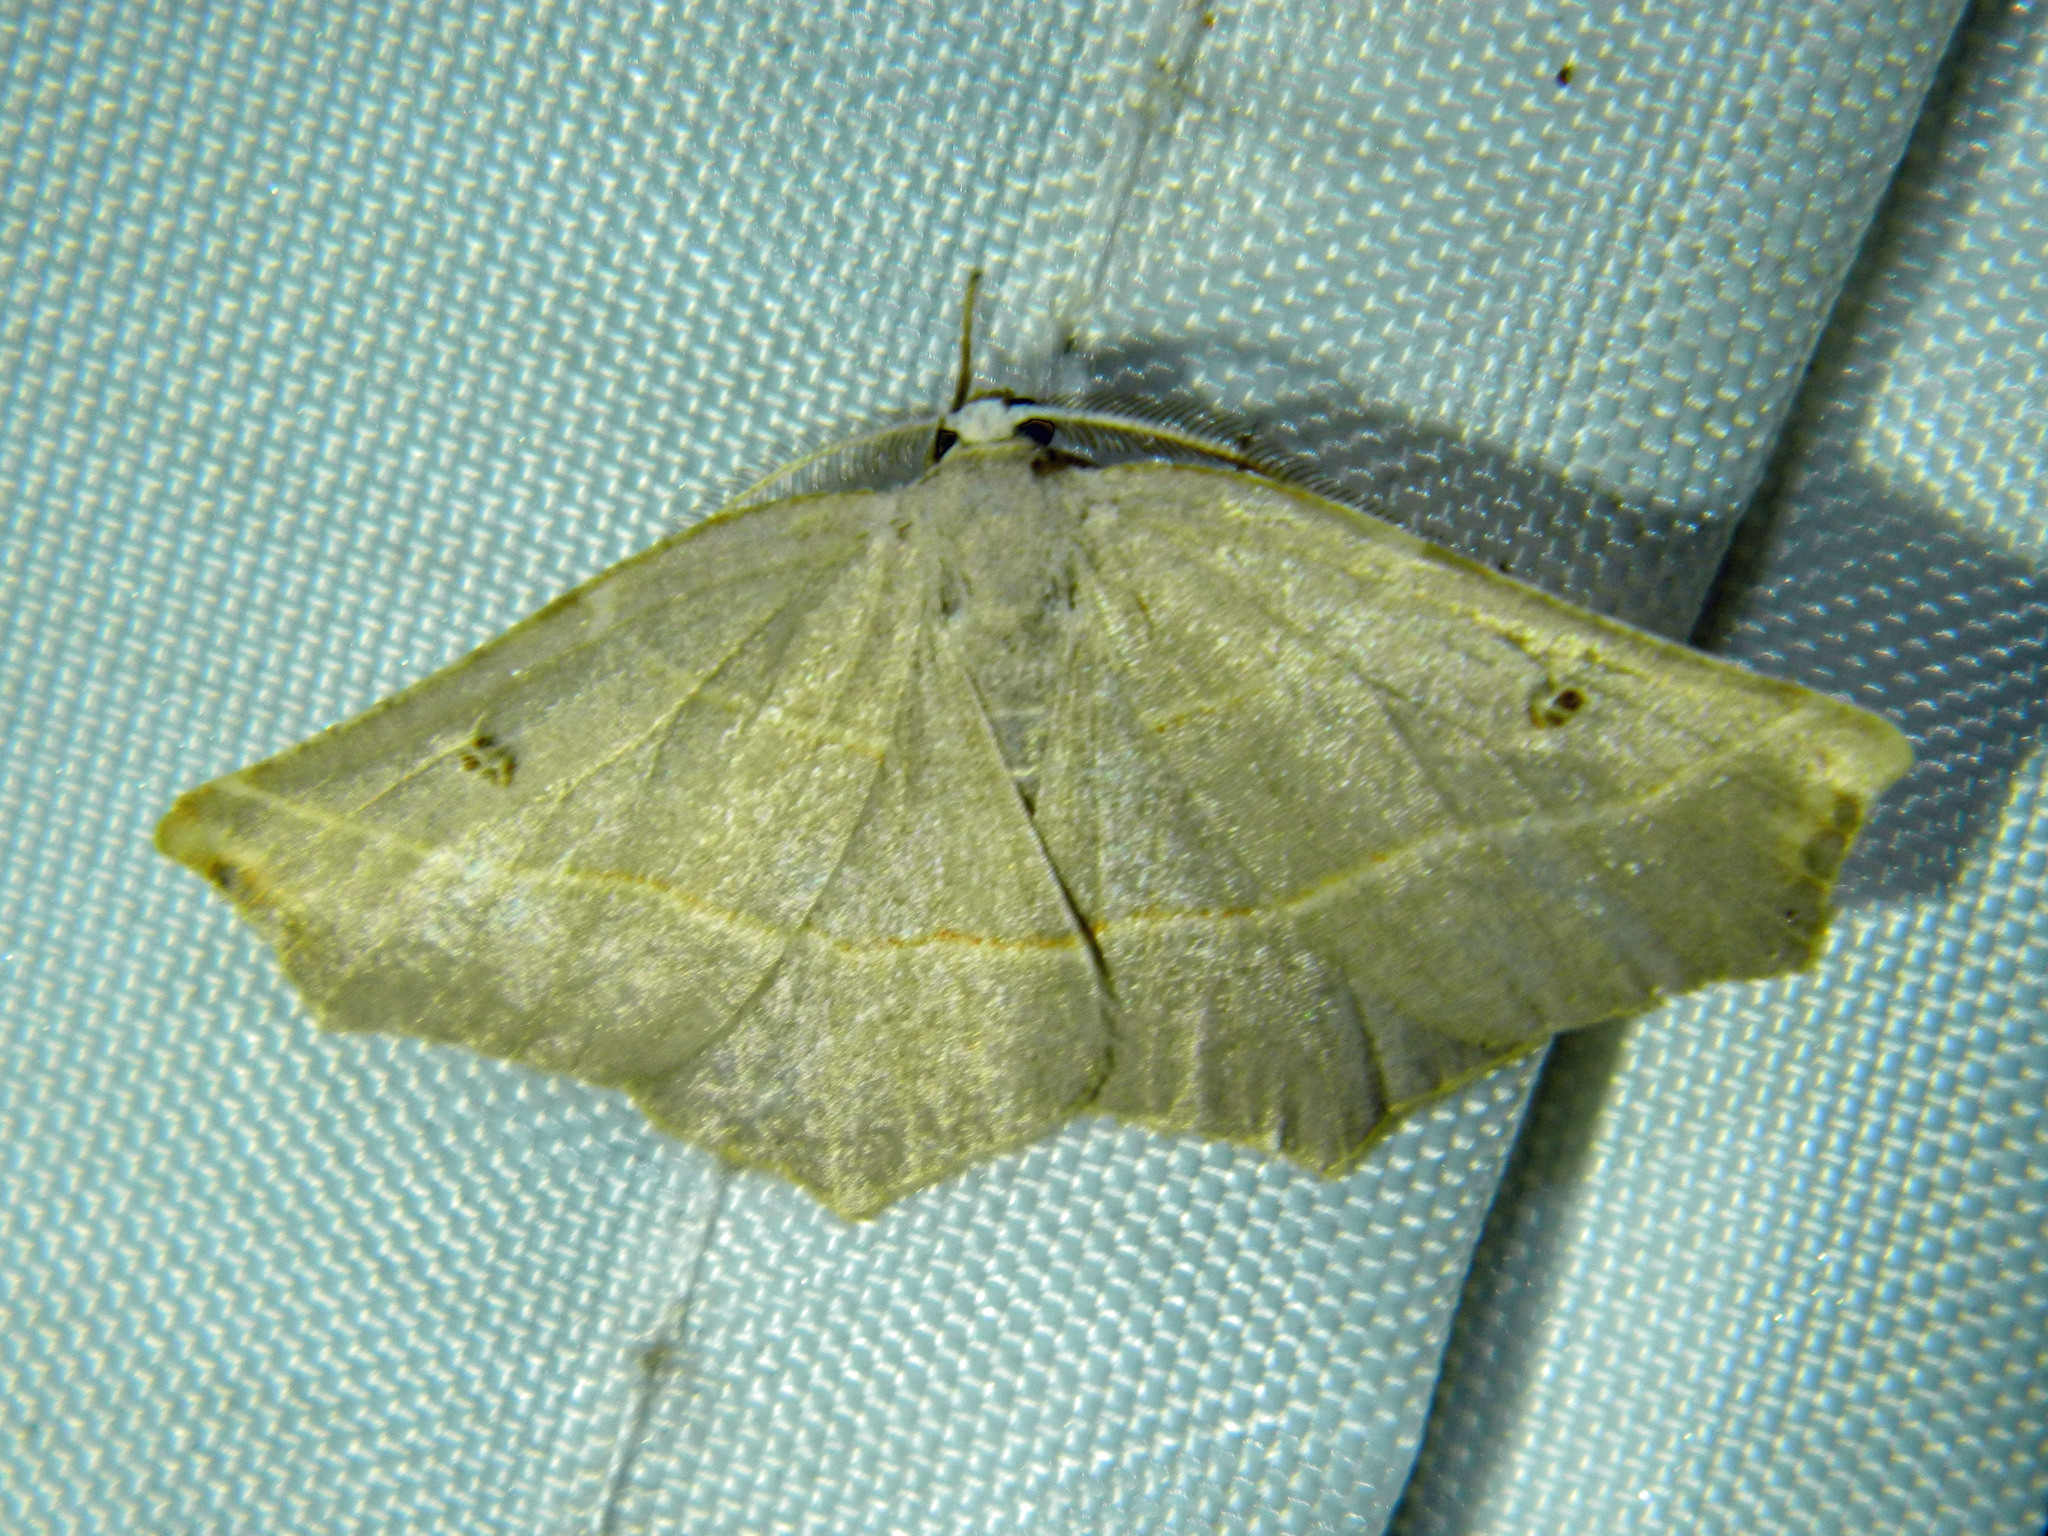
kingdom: Animalia
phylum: Arthropoda
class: Insecta
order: Lepidoptera
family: Geometridae
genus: Metanema
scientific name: Metanema inatomaria
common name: Pale metanema
